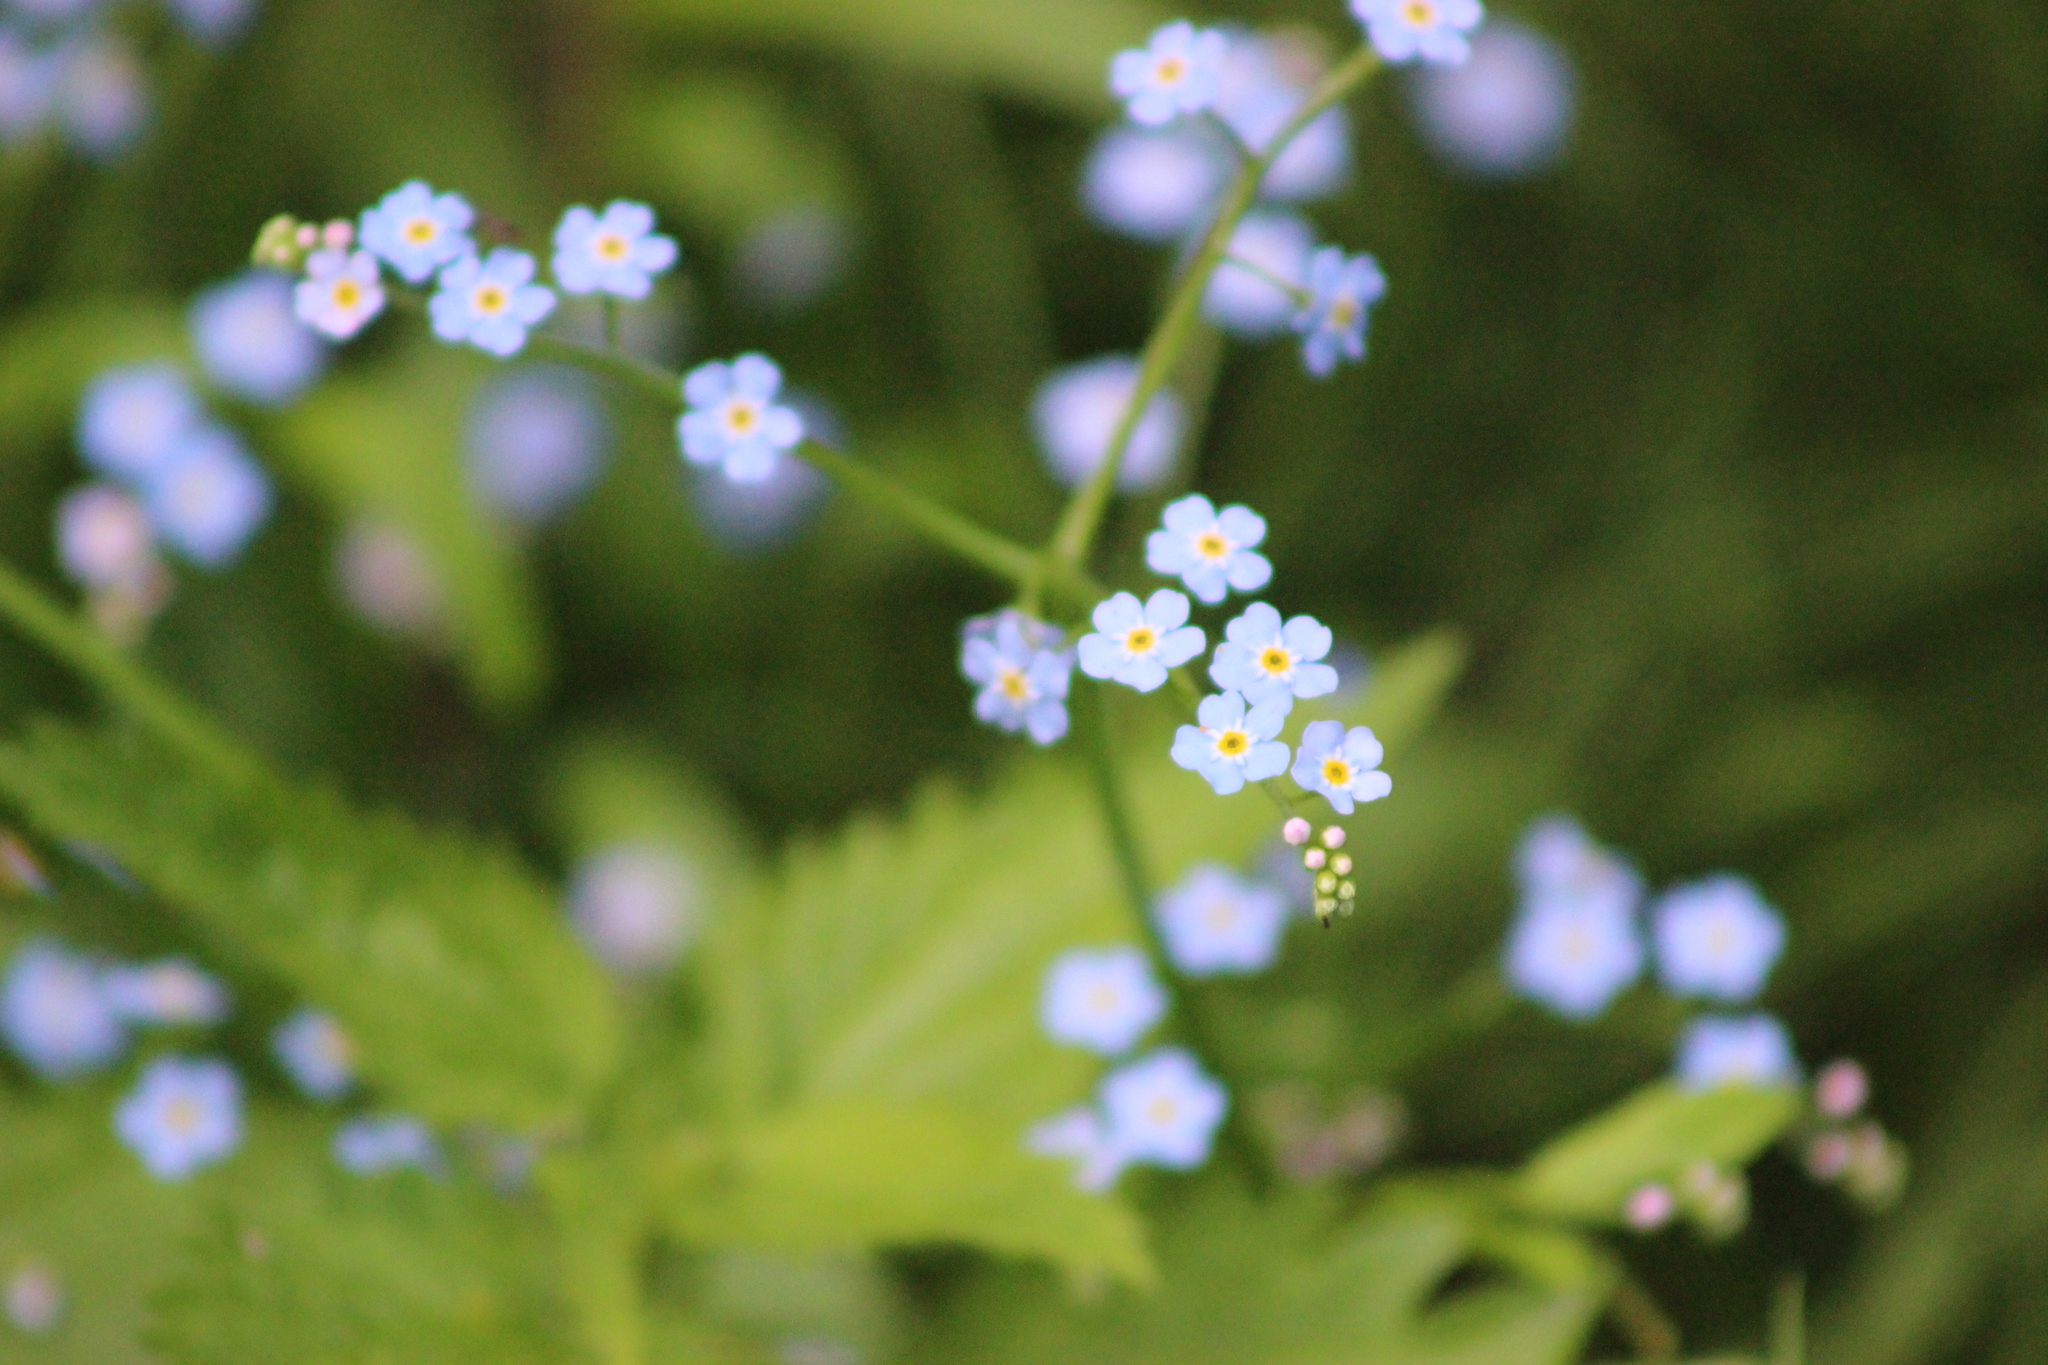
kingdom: Plantae
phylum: Tracheophyta
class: Magnoliopsida
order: Boraginales
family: Boraginaceae
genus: Myosotis
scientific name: Myosotis scorpioides
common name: Water forget-me-not
